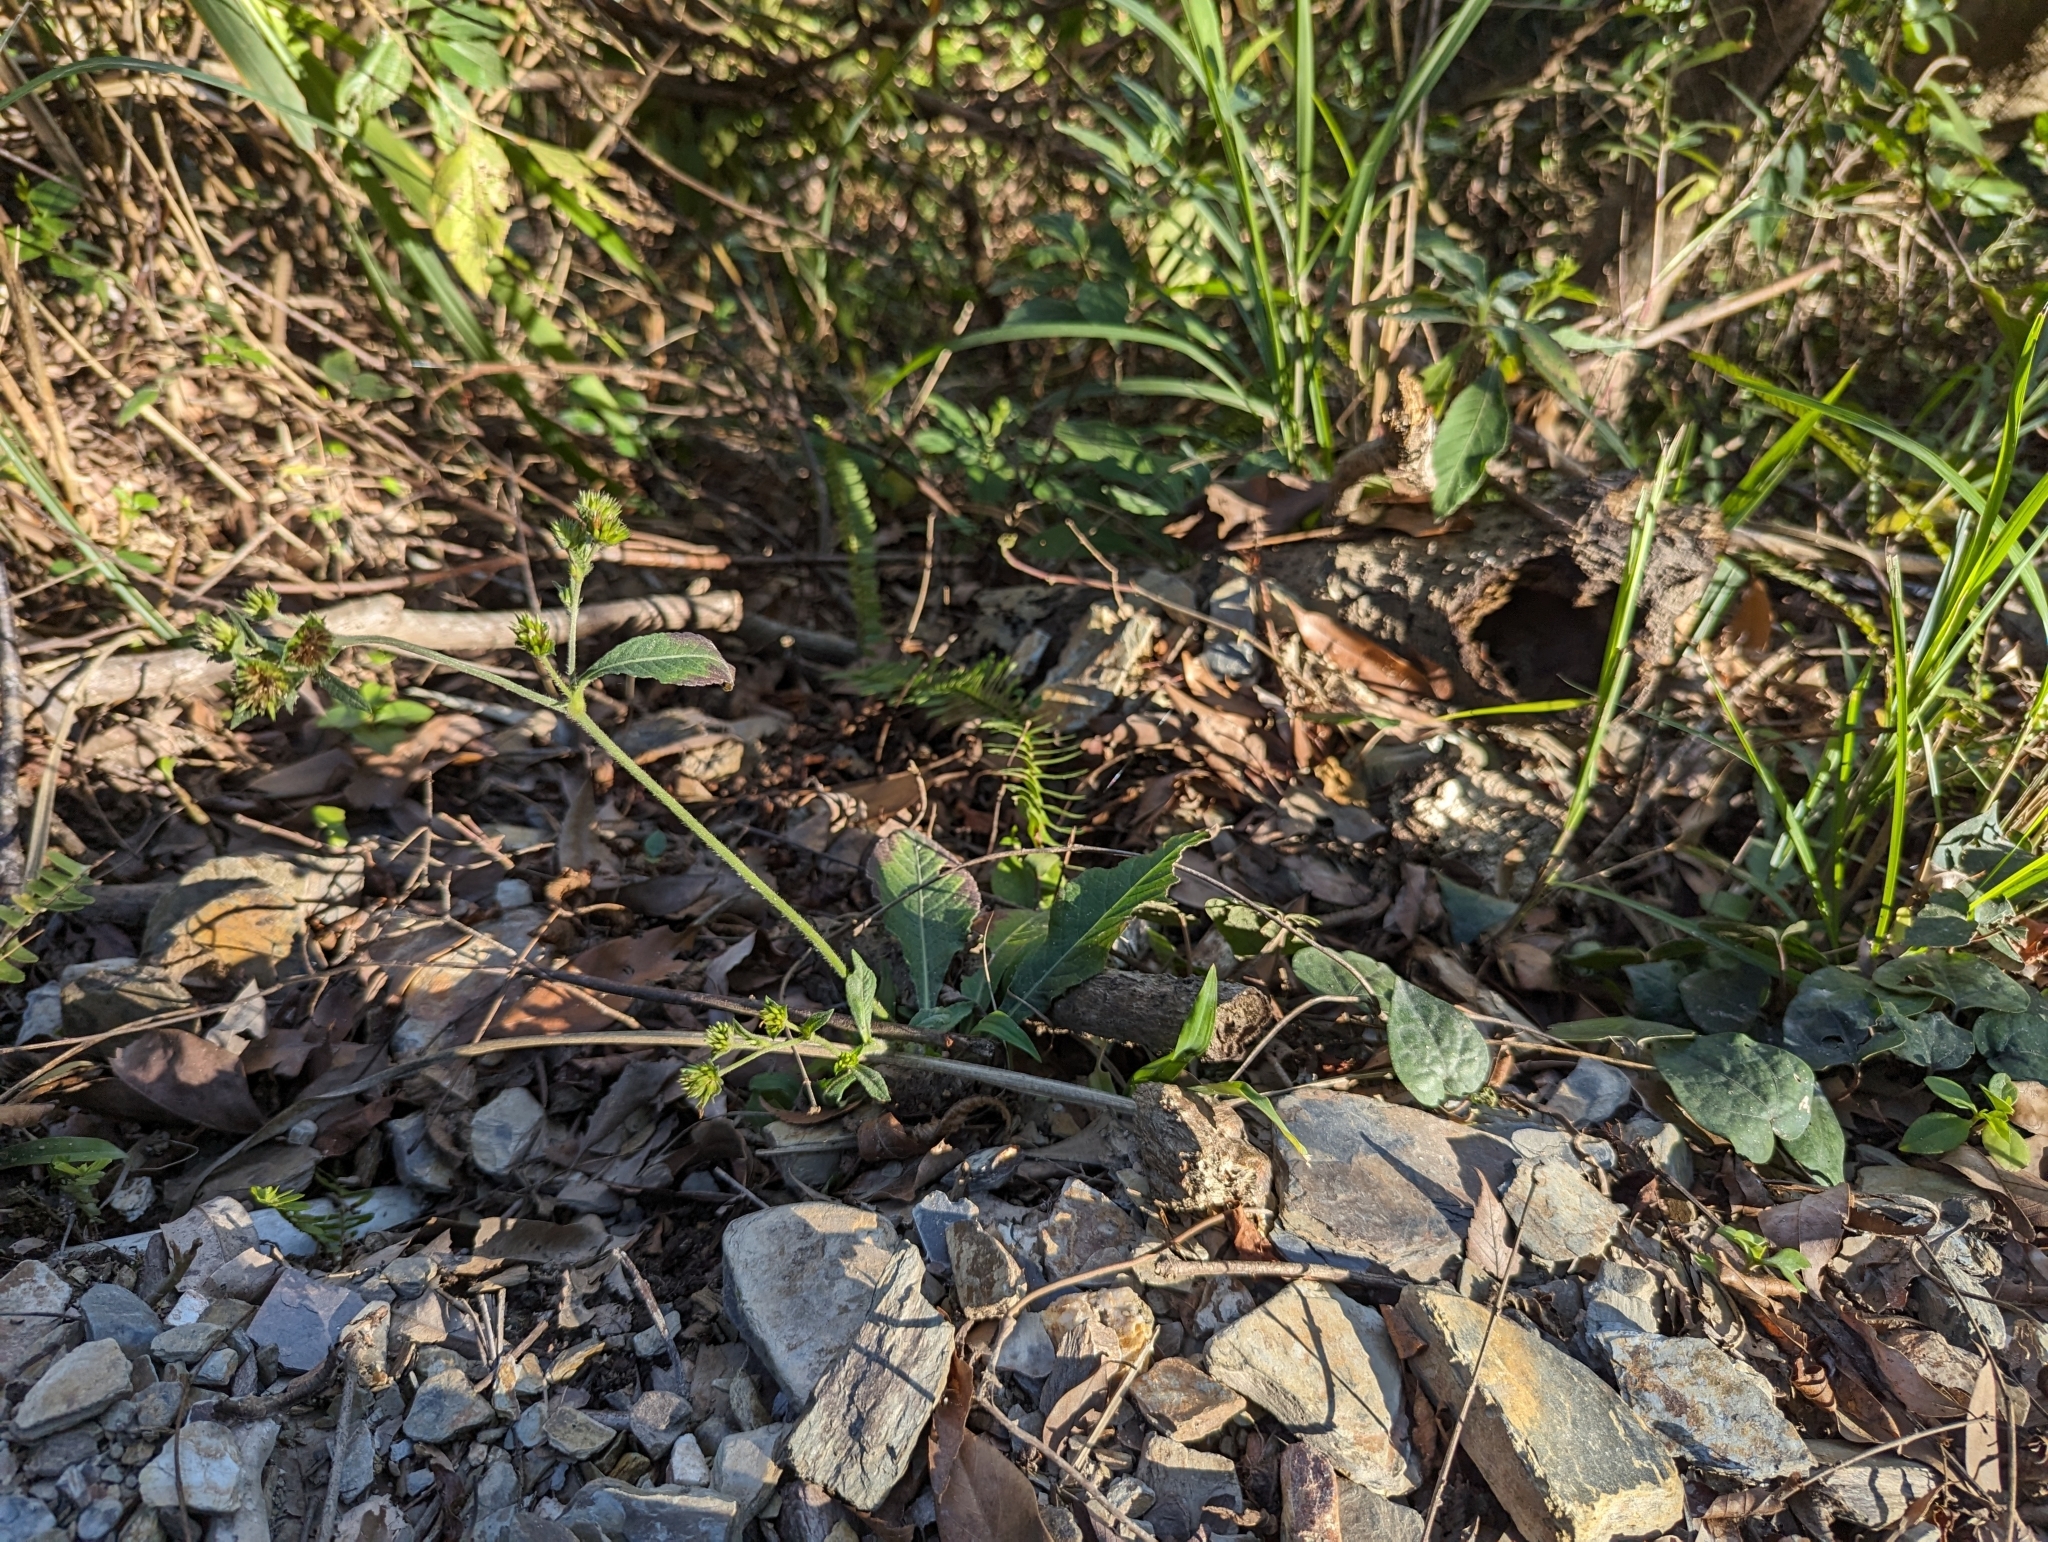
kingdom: Plantae
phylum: Tracheophyta
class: Magnoliopsida
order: Asterales
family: Asteraceae
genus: Elephantopus
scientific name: Elephantopus mollis
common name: Soft elephantsfoot
